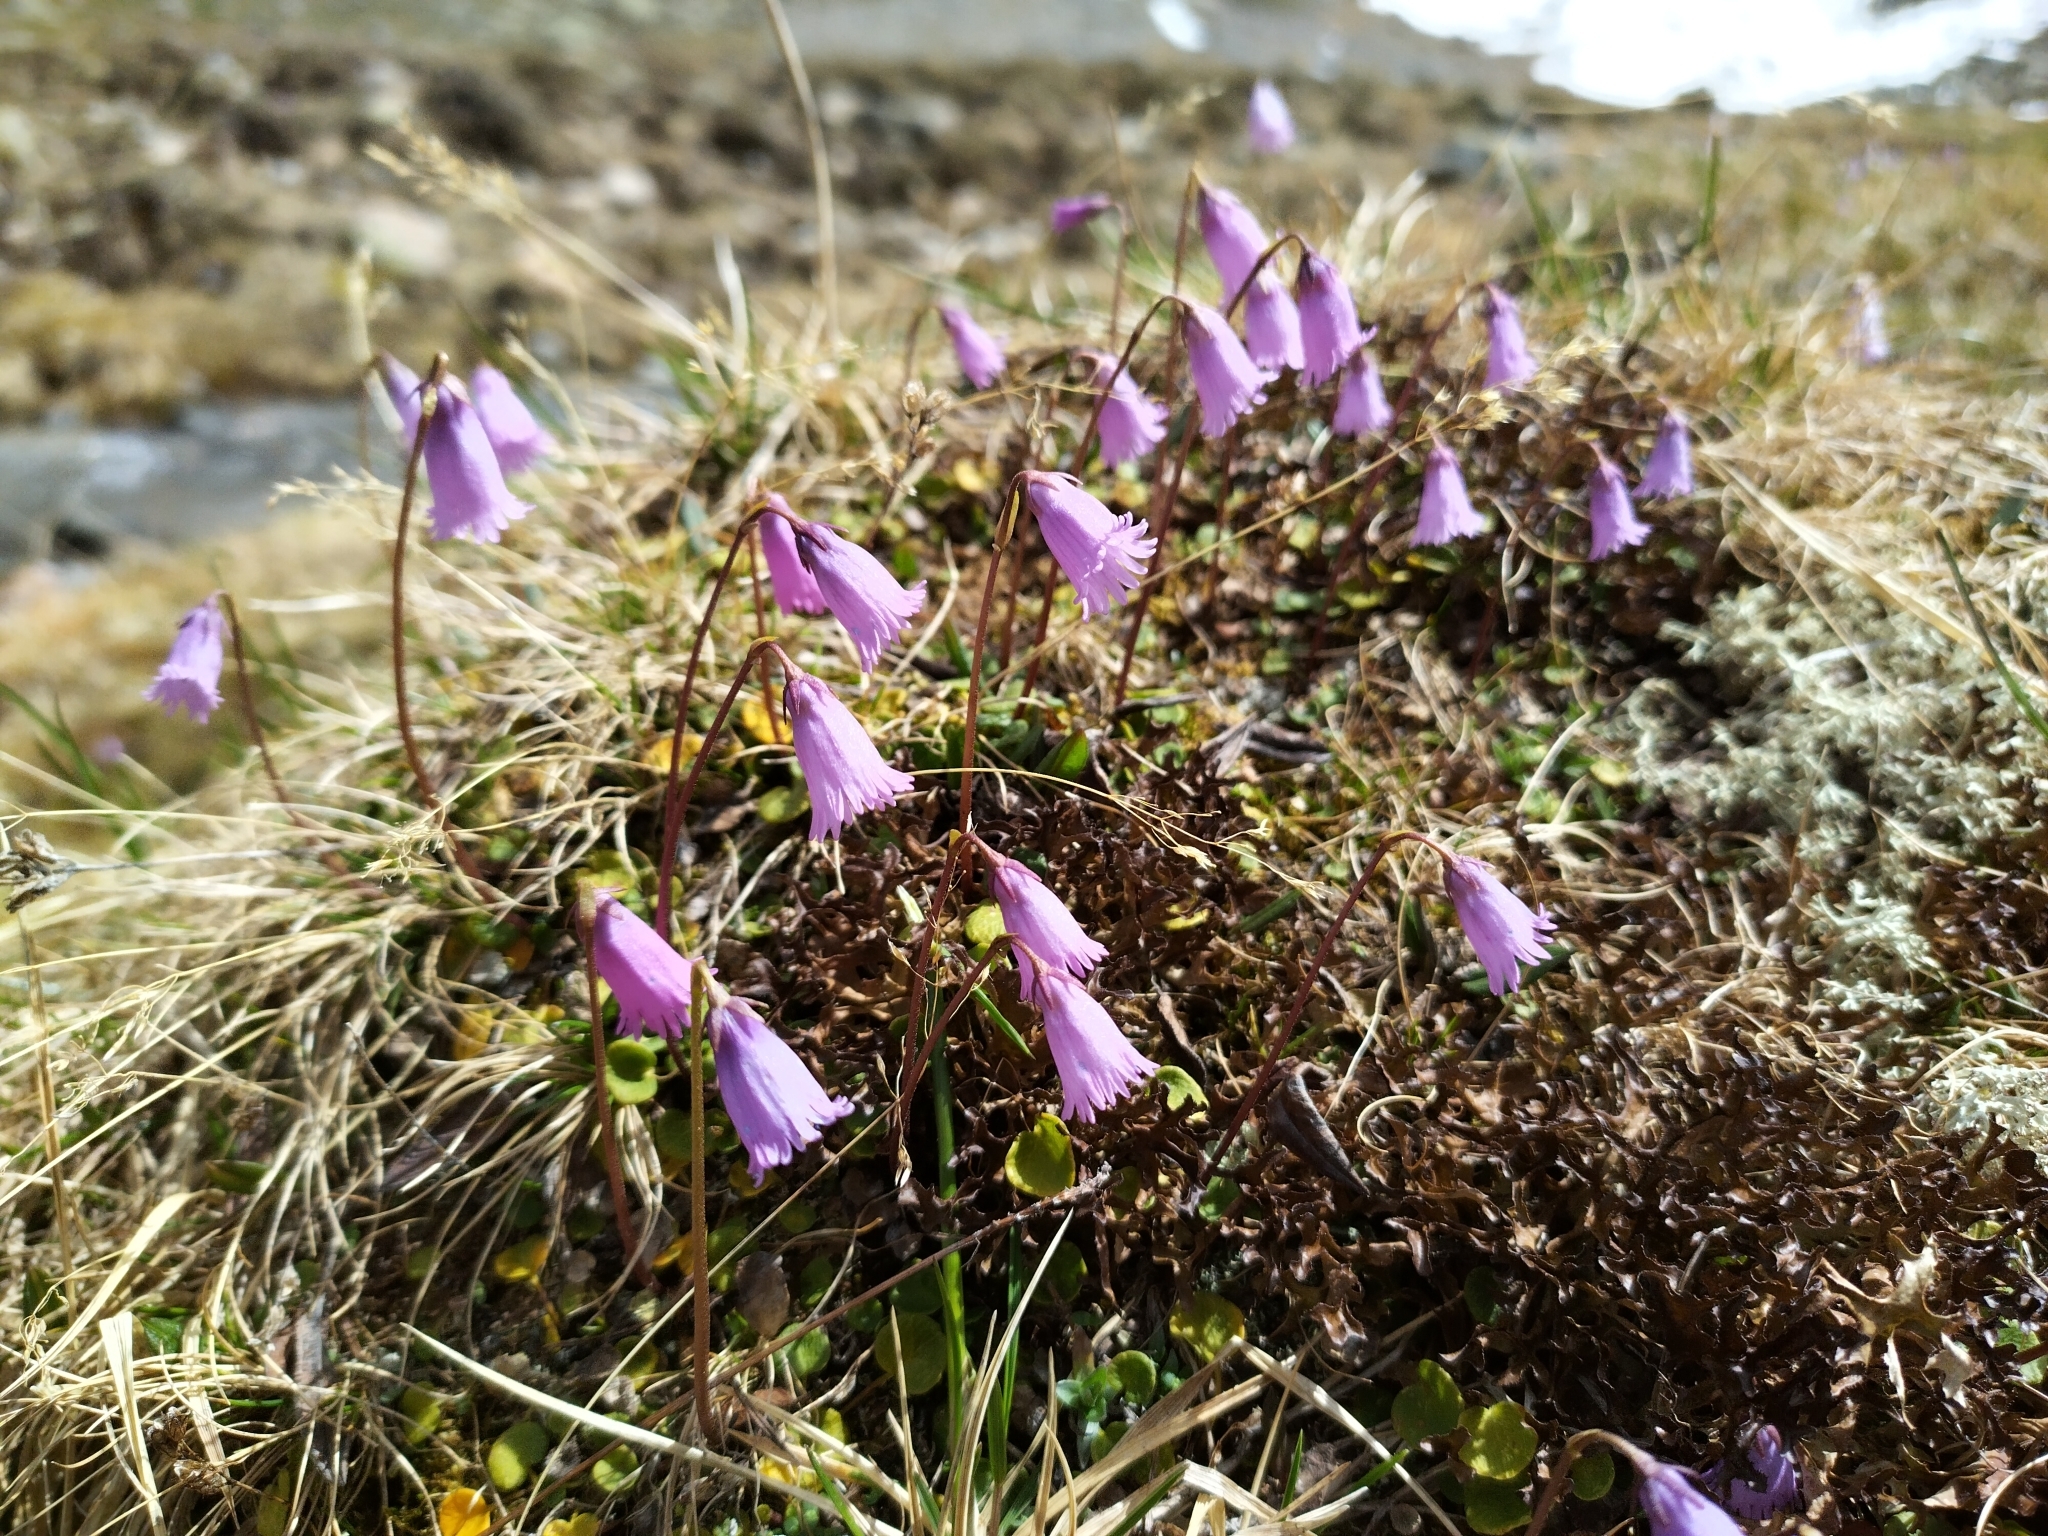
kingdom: Plantae
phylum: Tracheophyta
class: Magnoliopsida
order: Ericales
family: Primulaceae
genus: Soldanella
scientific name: Soldanella alpicola
